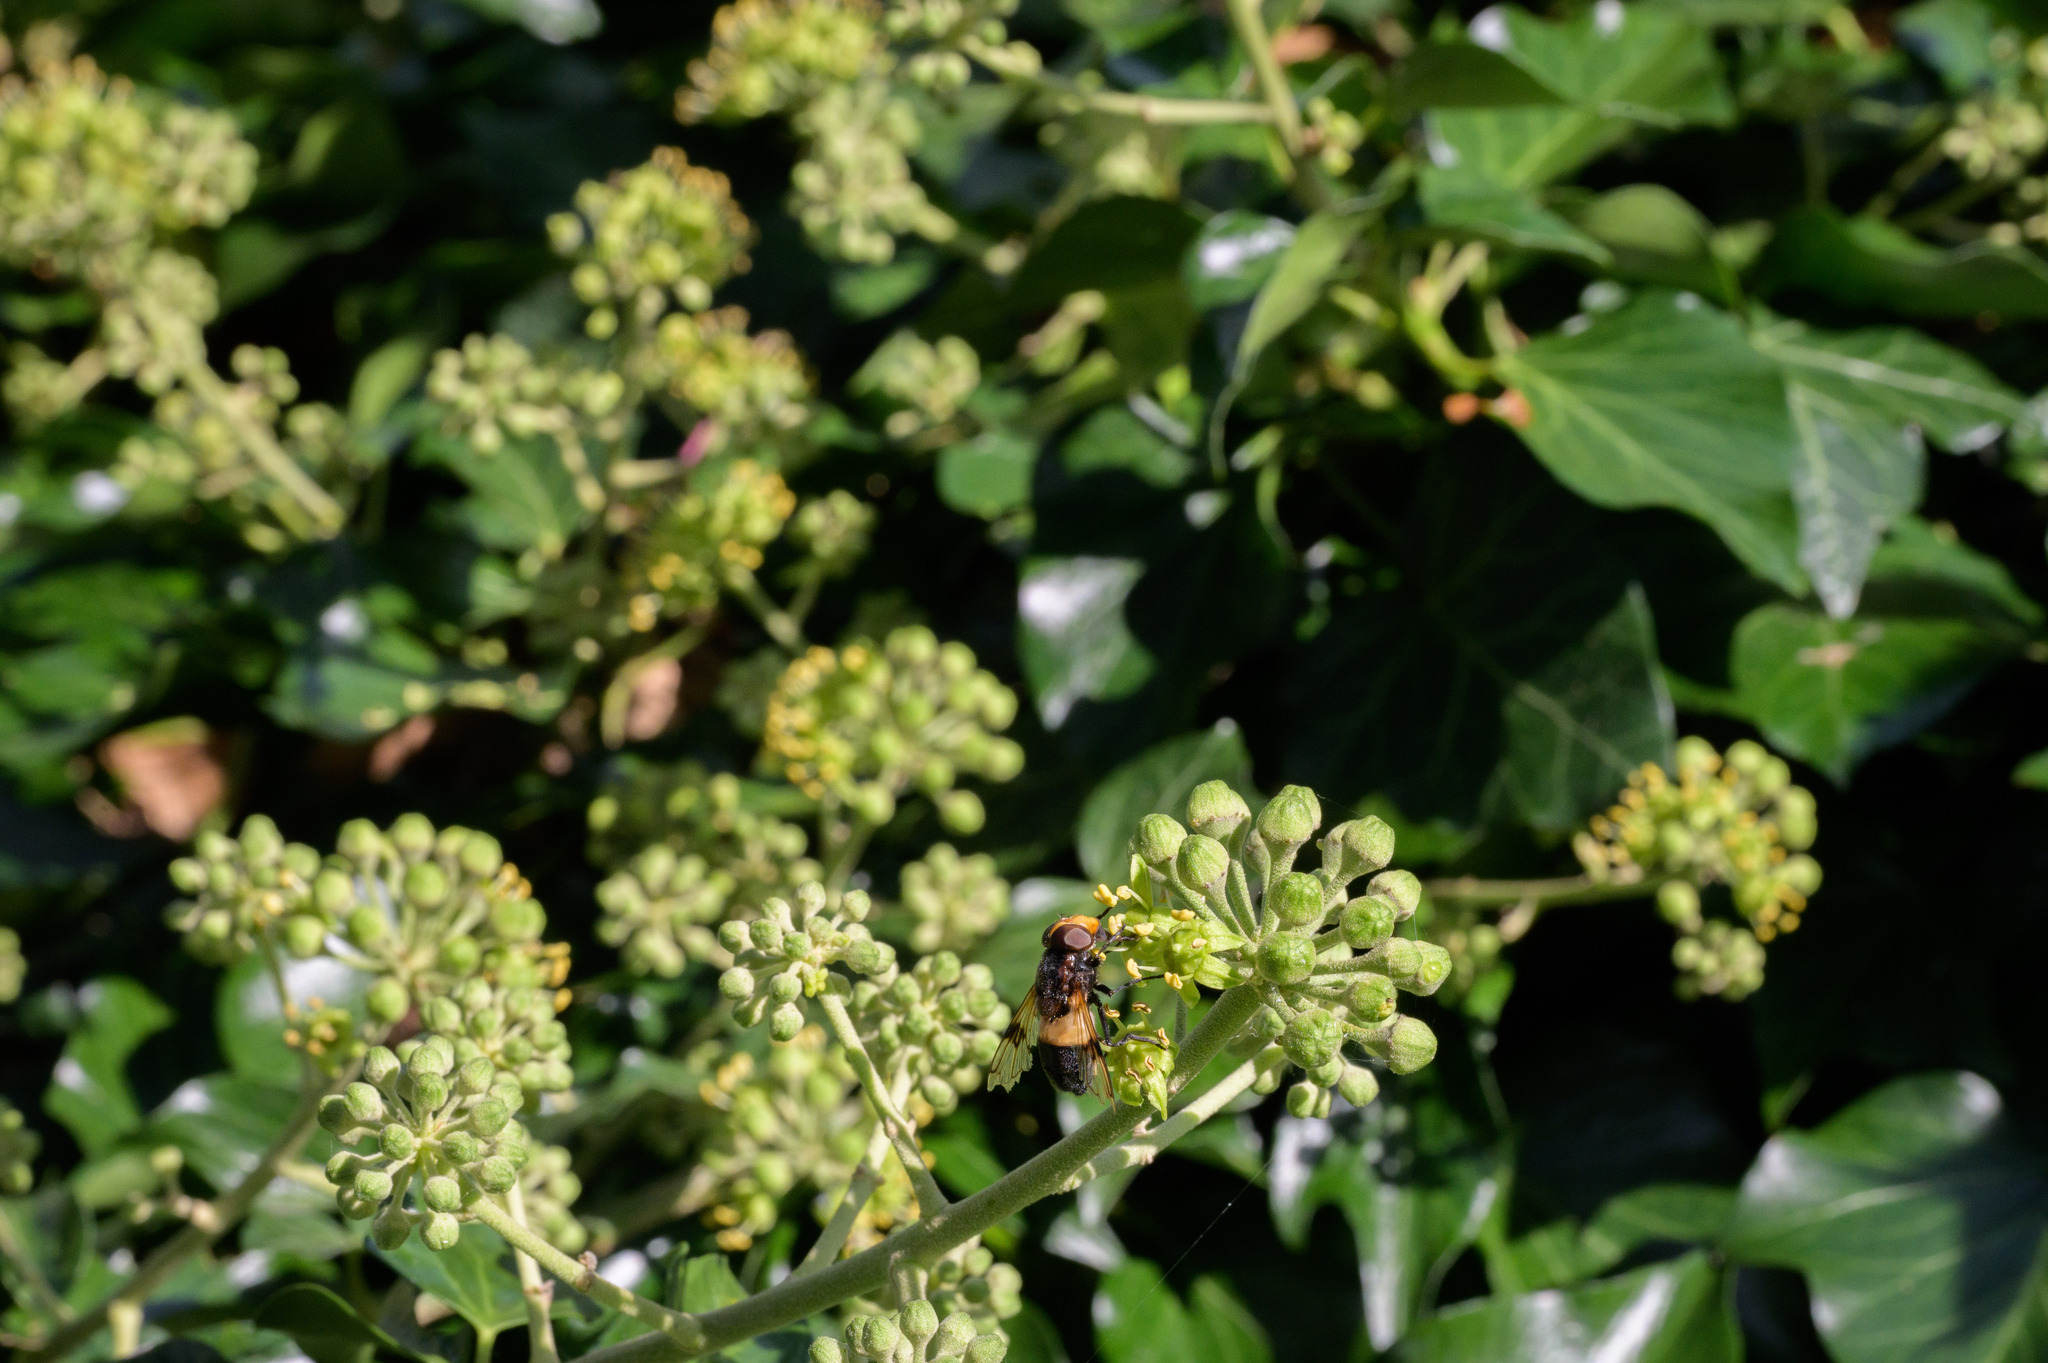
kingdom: Animalia
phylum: Arthropoda
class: Insecta
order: Diptera
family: Syrphidae
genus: Volucella
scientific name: Volucella pellucens
